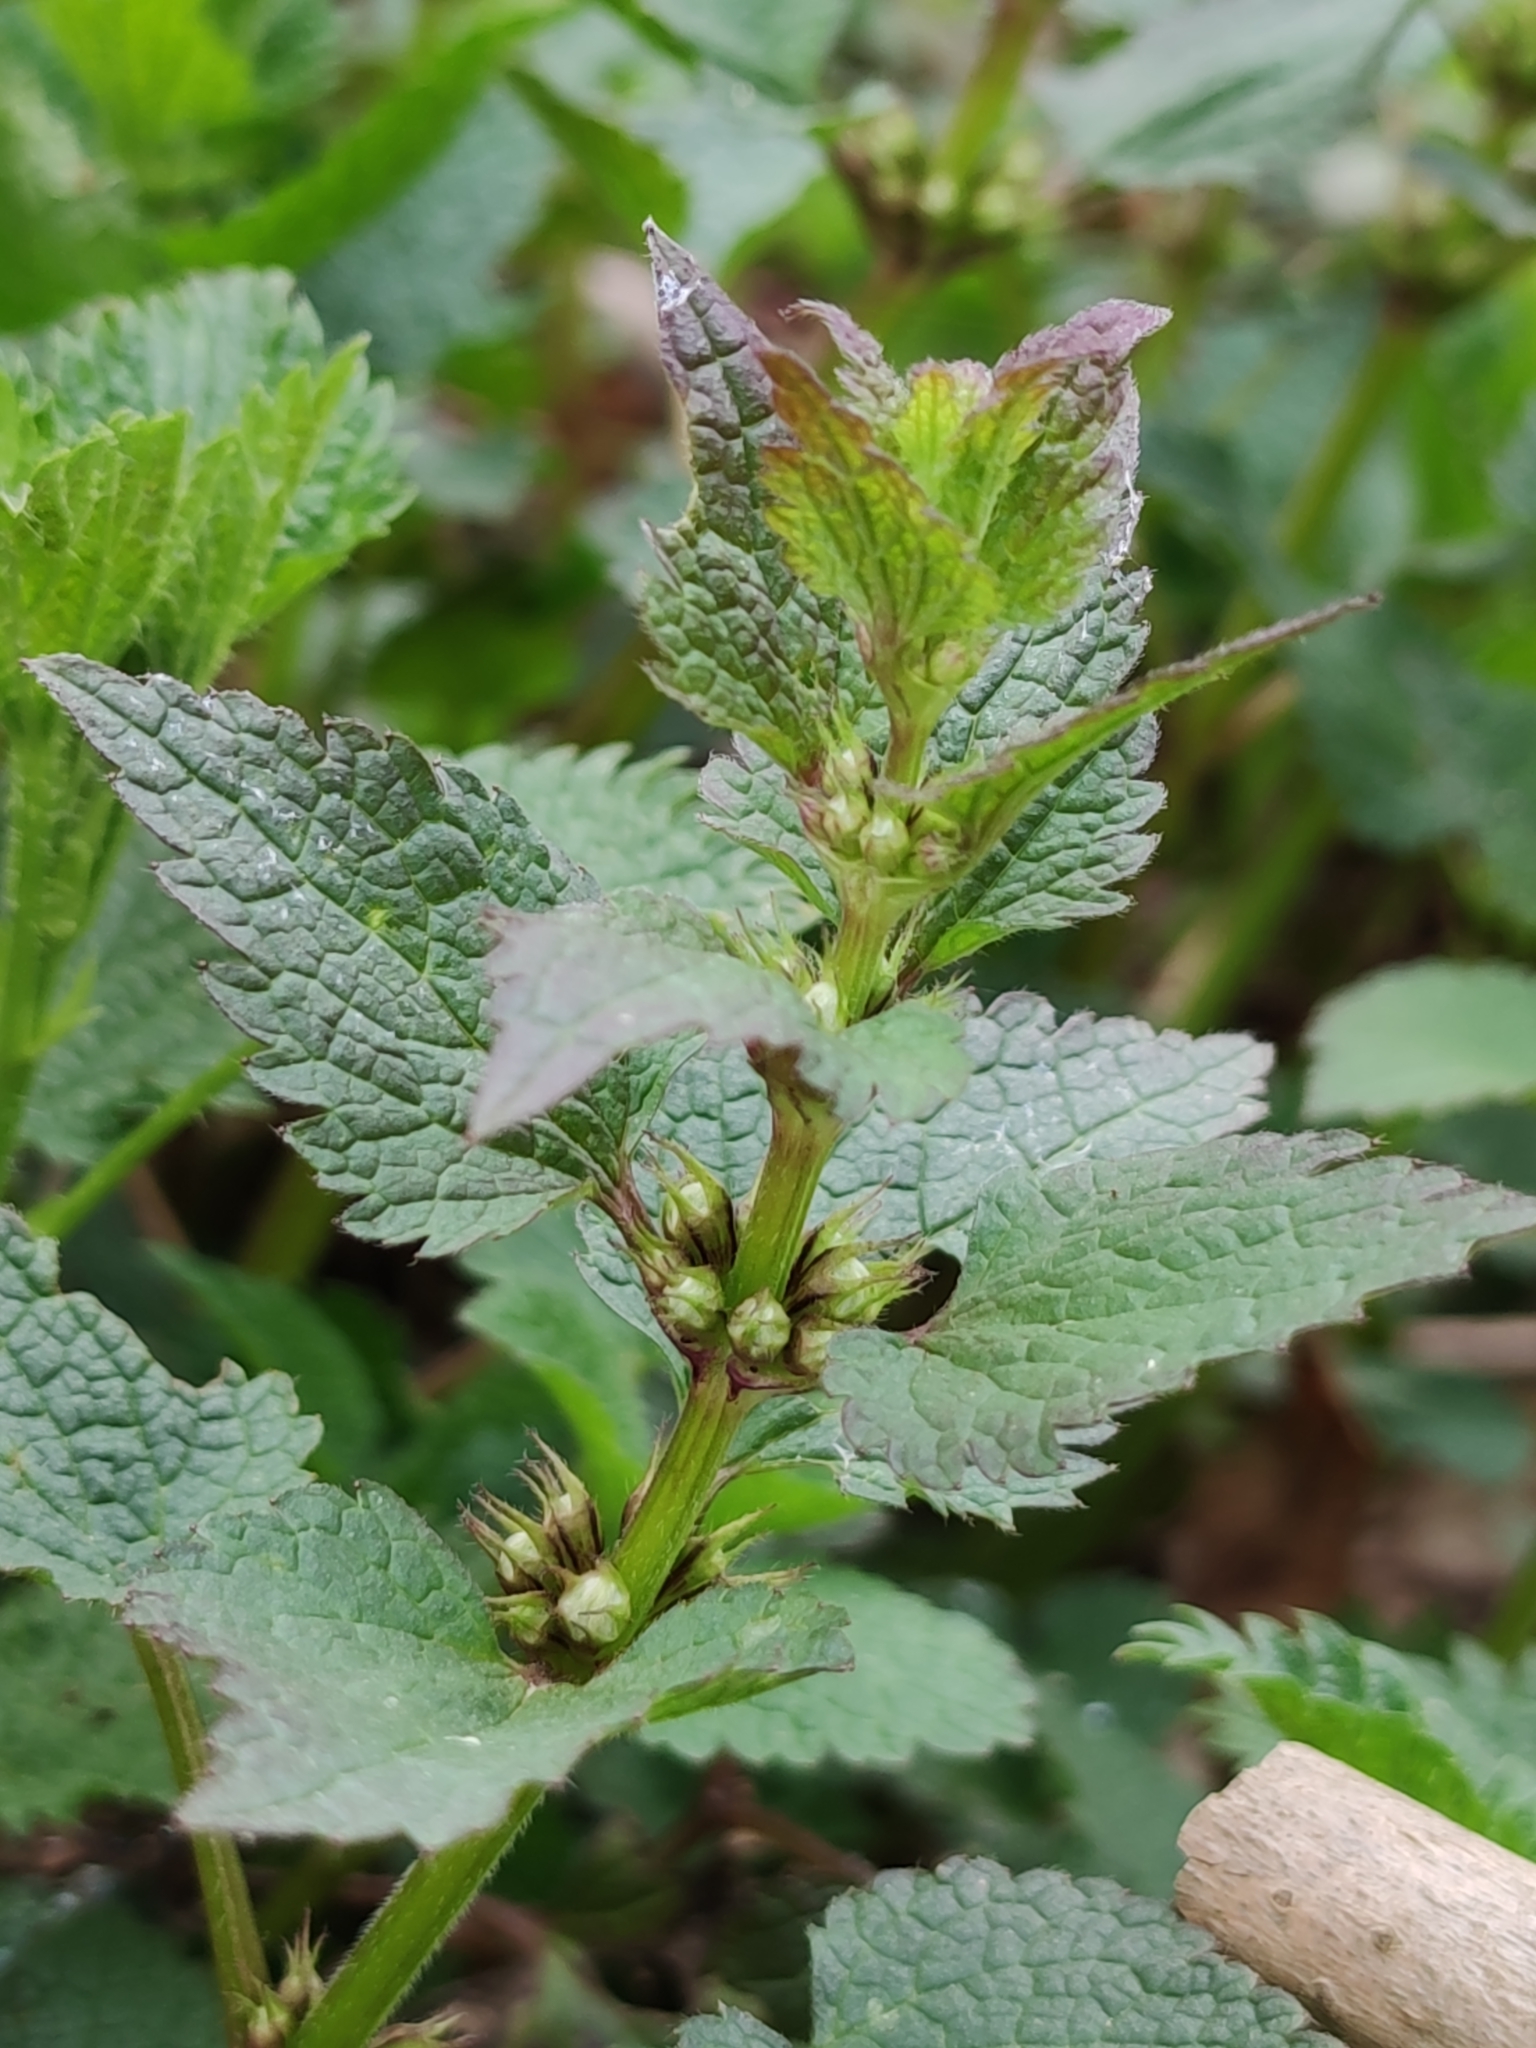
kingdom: Plantae
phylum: Tracheophyta
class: Magnoliopsida
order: Lamiales
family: Lamiaceae
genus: Lamium
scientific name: Lamium album
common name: White dead-nettle
